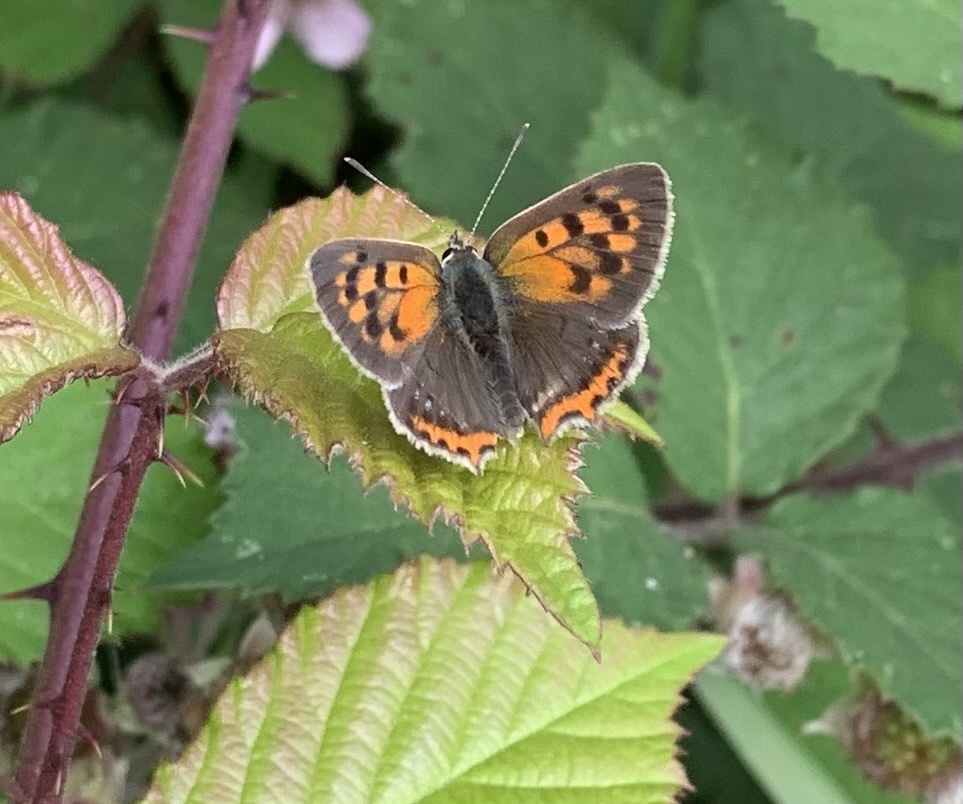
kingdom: Animalia
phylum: Arthropoda
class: Insecta
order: Lepidoptera
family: Lycaenidae
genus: Lycaena
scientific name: Lycaena phlaeas
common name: Small copper
